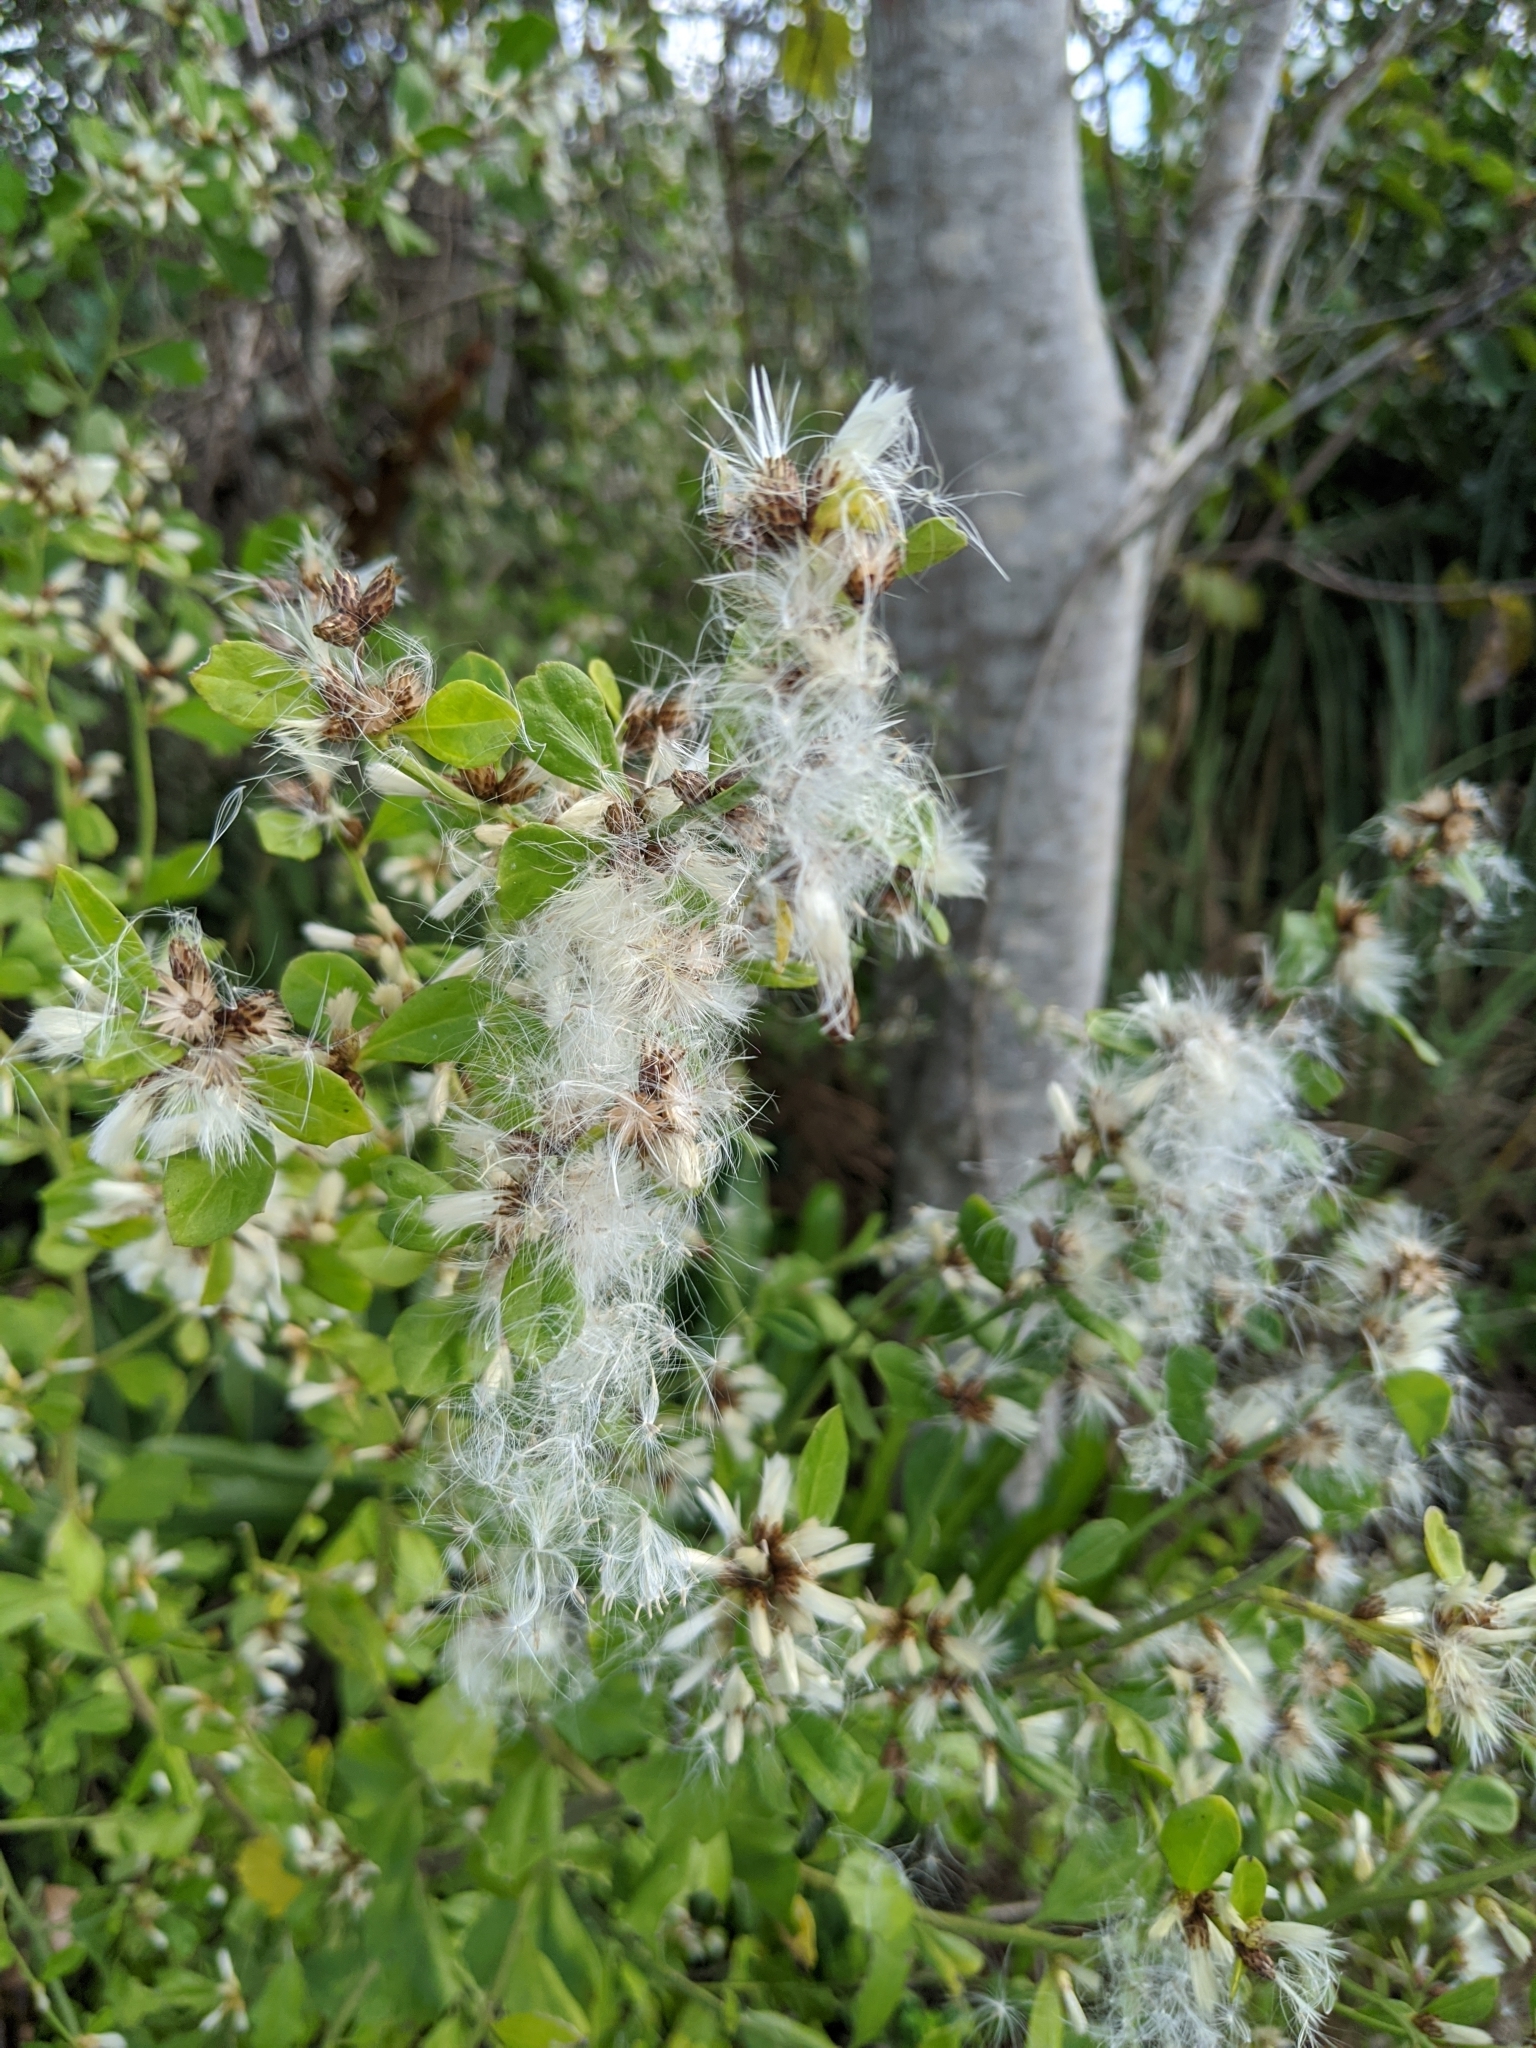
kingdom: Plantae
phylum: Tracheophyta
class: Magnoliopsida
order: Asterales
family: Asteraceae
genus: Baccharis
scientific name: Baccharis glomeruliflora
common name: Silverling groundsel bush
